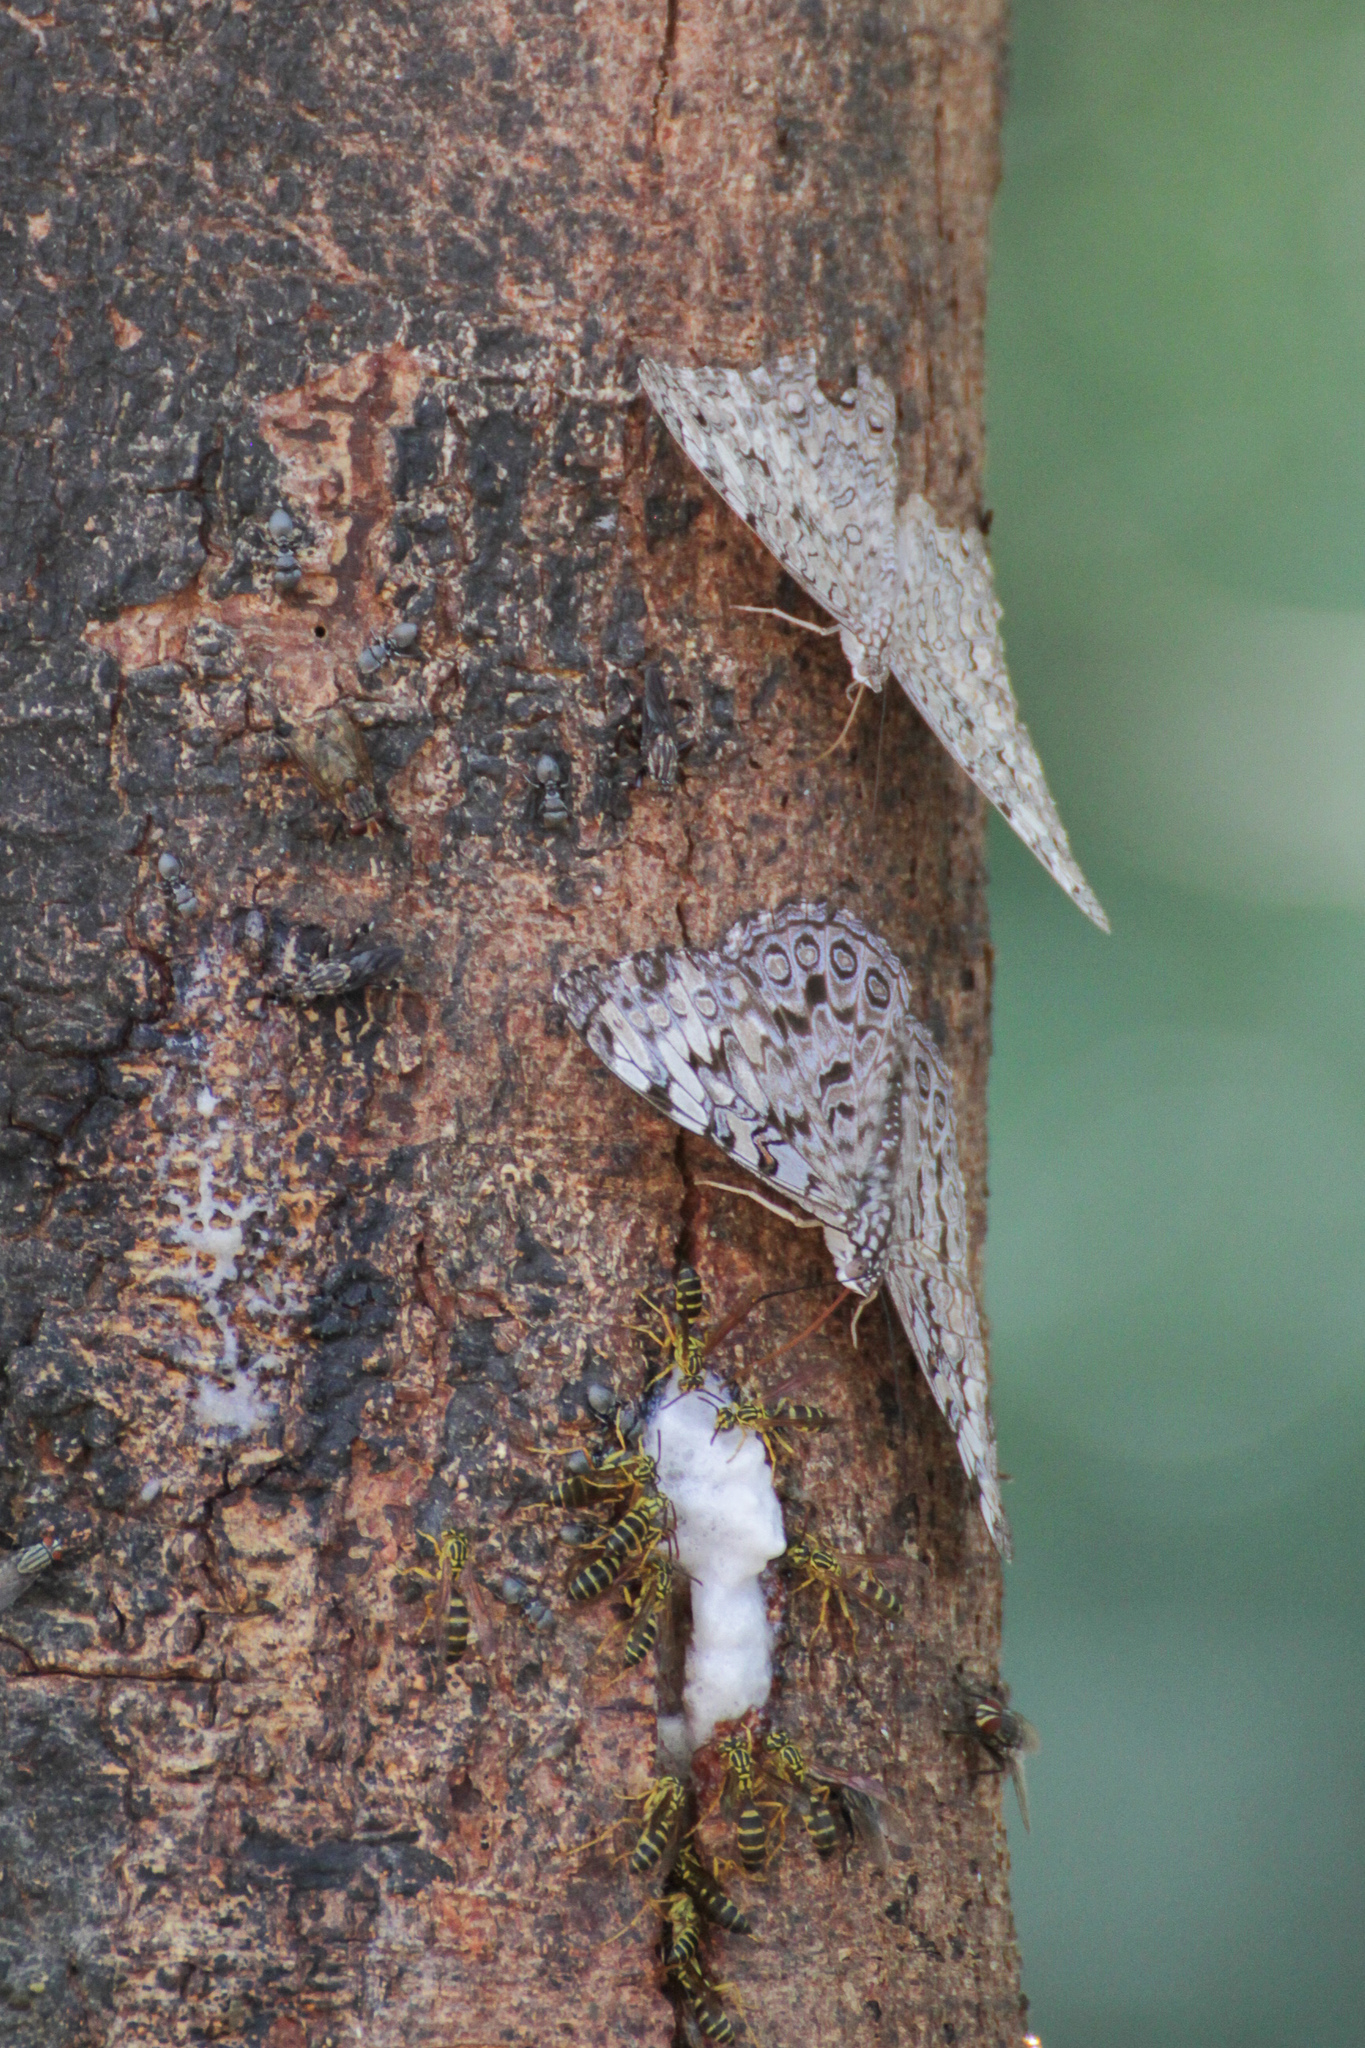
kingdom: Animalia
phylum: Arthropoda
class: Insecta
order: Lepidoptera
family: Nymphalidae
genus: Hamadryas
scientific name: Hamadryas guatemalena
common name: Guatemalan cracker
